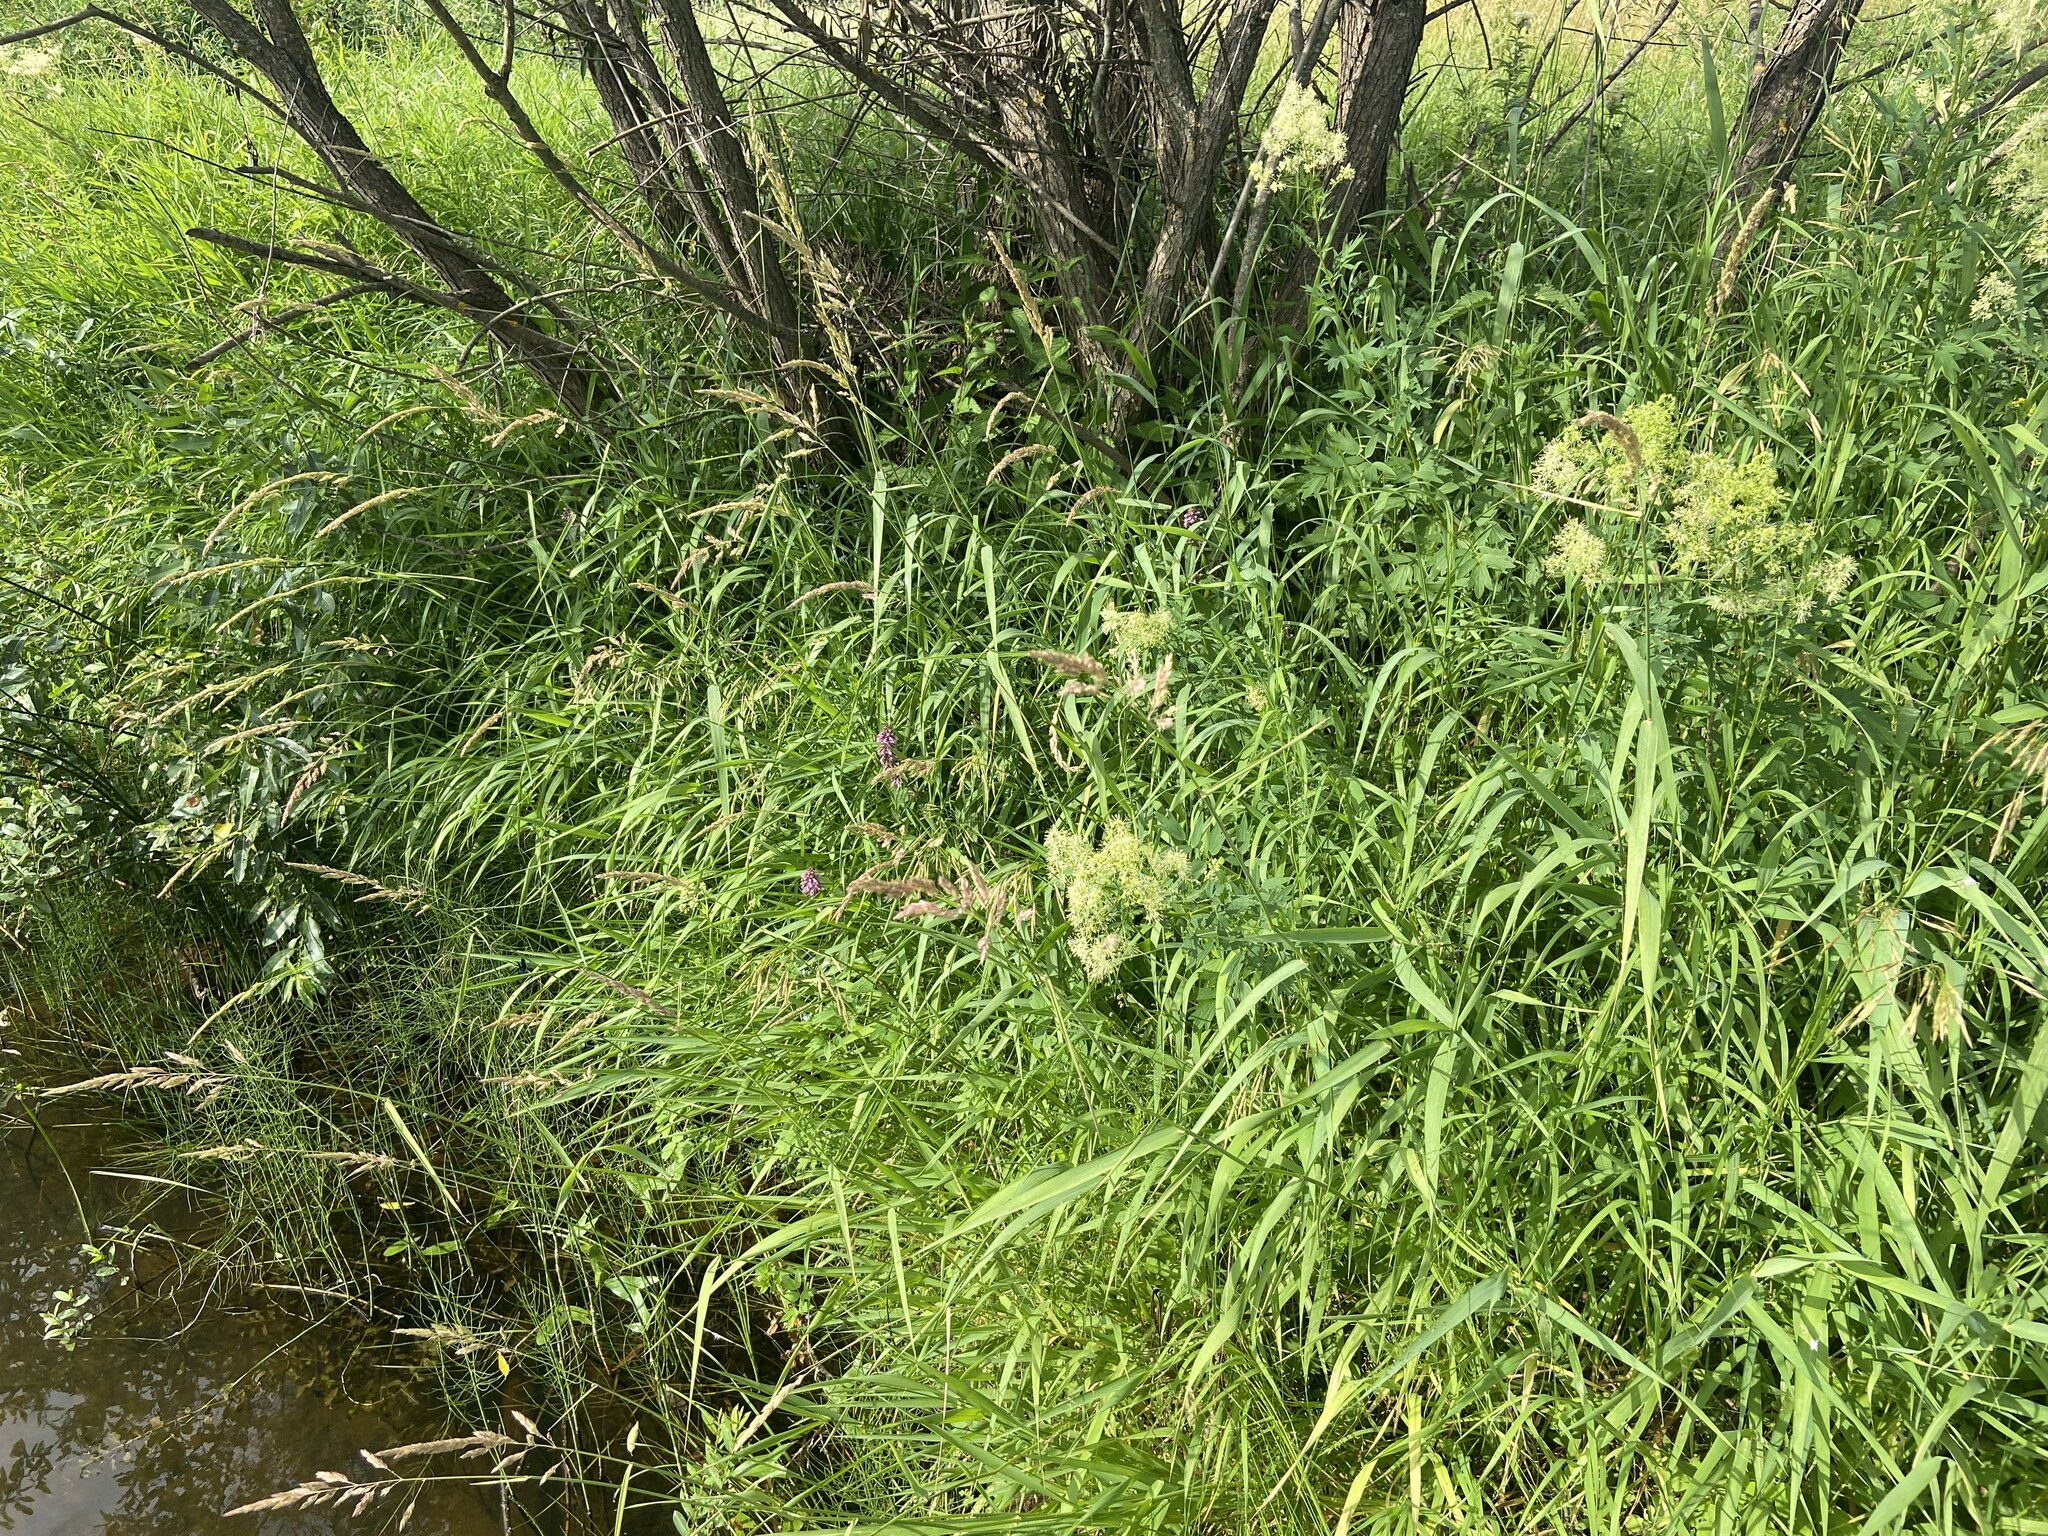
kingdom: Plantae
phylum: Tracheophyta
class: Liliopsida
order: Poales
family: Poaceae
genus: Phalaris
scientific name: Phalaris arundinacea
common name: Reed canary-grass
